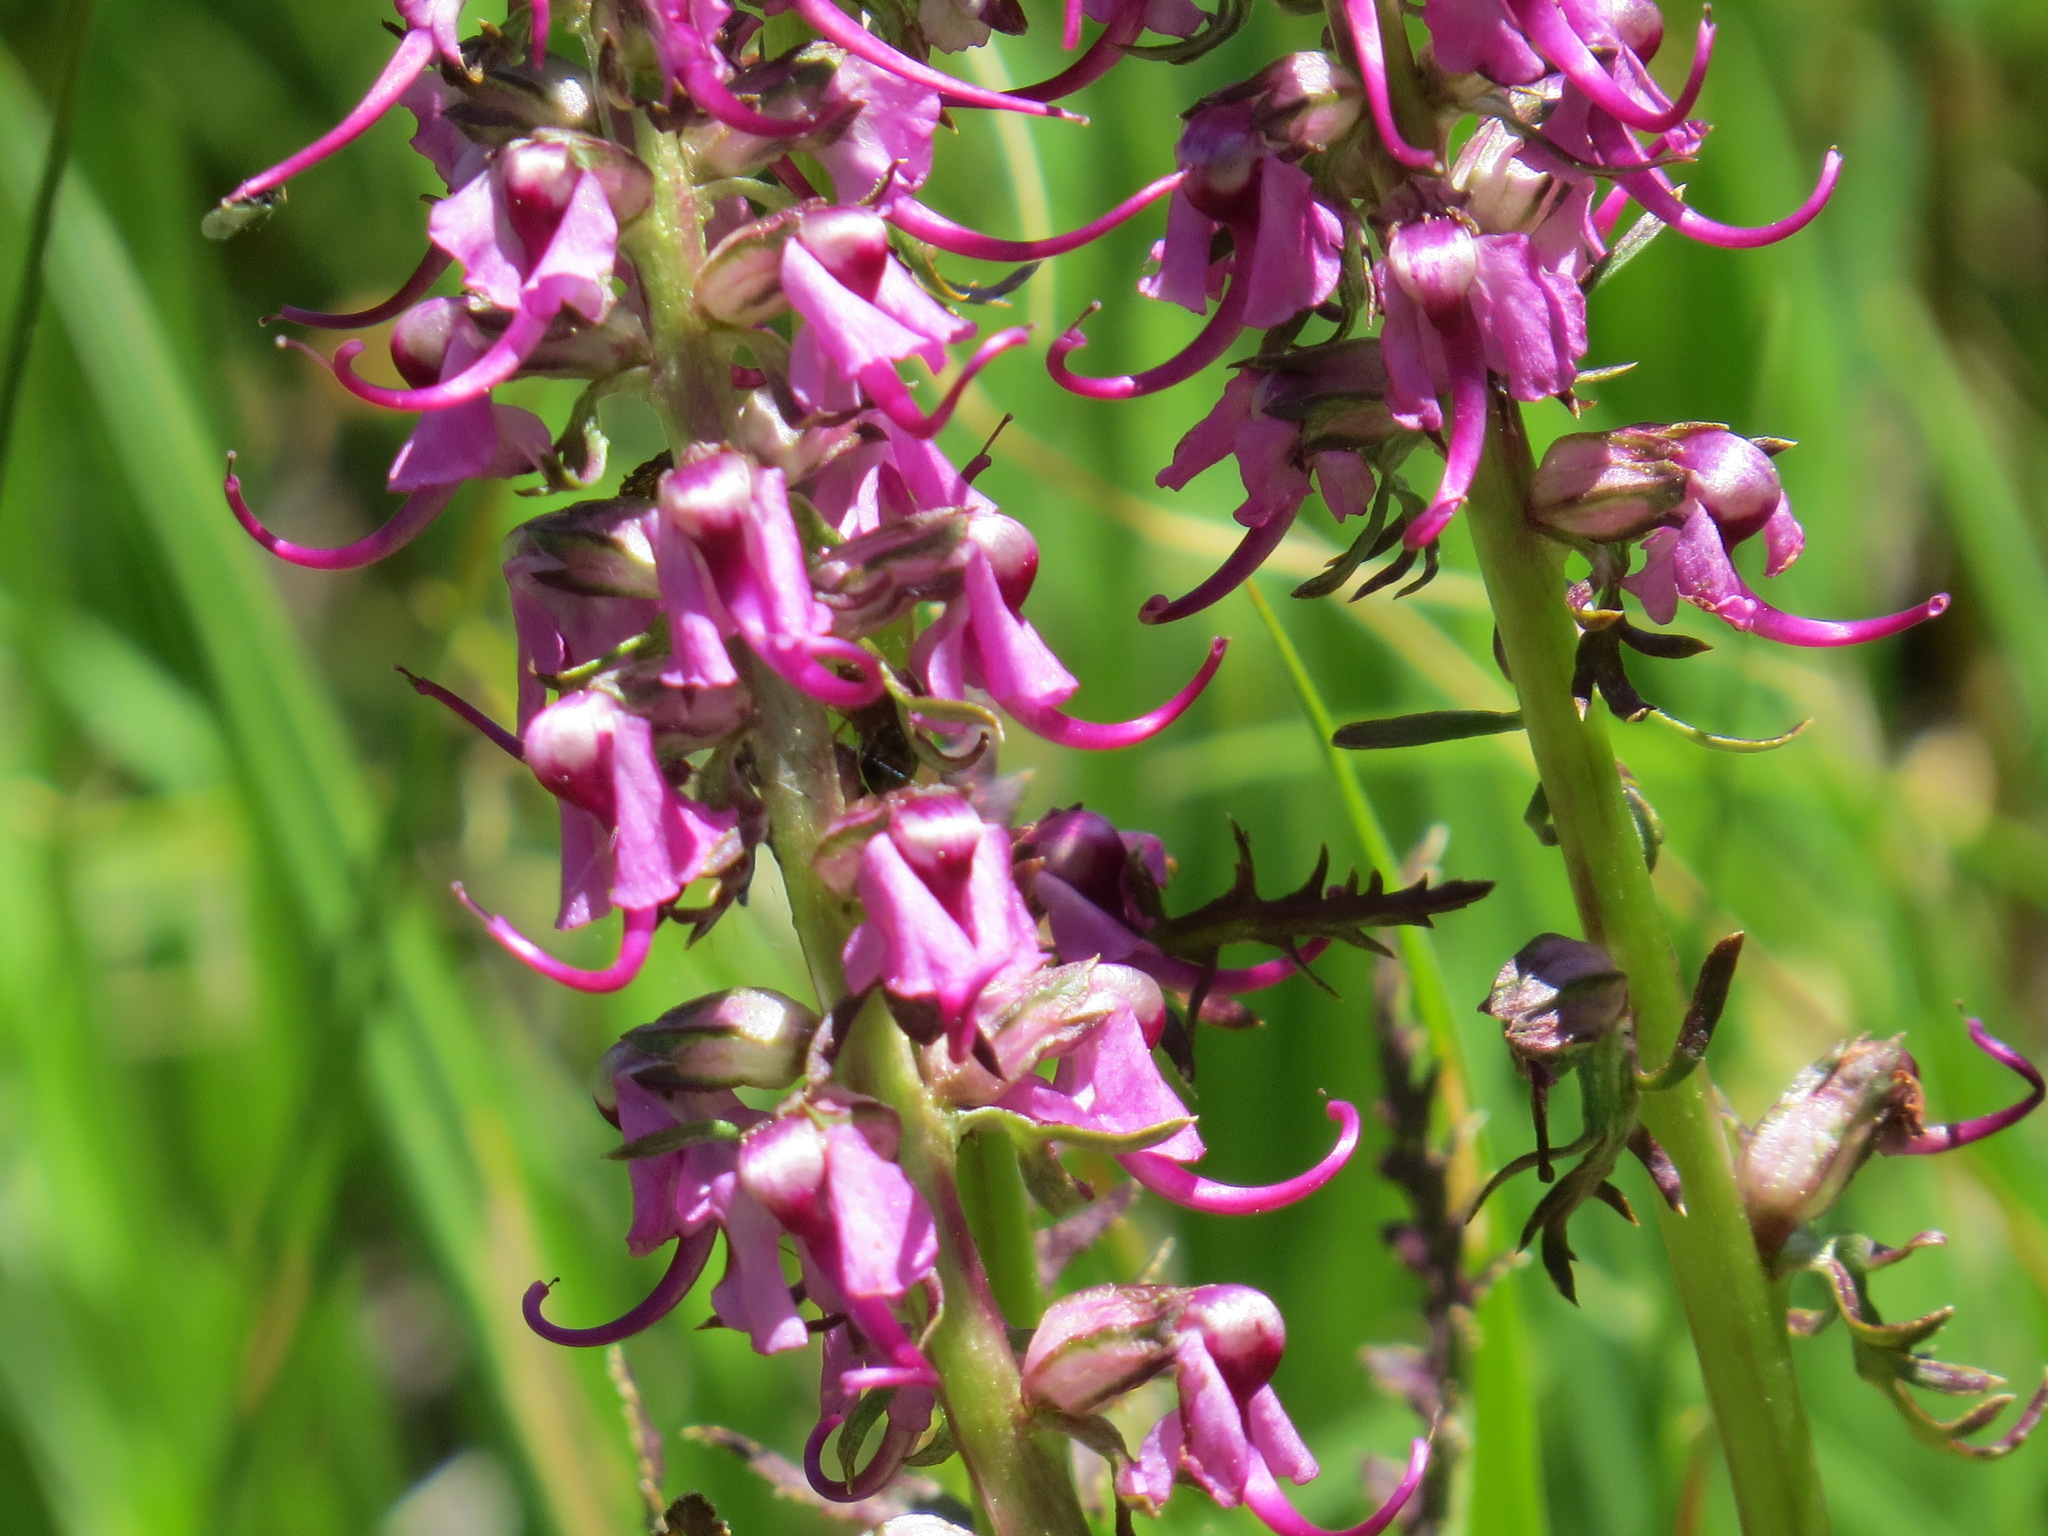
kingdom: Plantae
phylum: Tracheophyta
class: Magnoliopsida
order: Lamiales
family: Orobanchaceae
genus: Pedicularis
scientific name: Pedicularis groenlandica
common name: Elephant's-head
